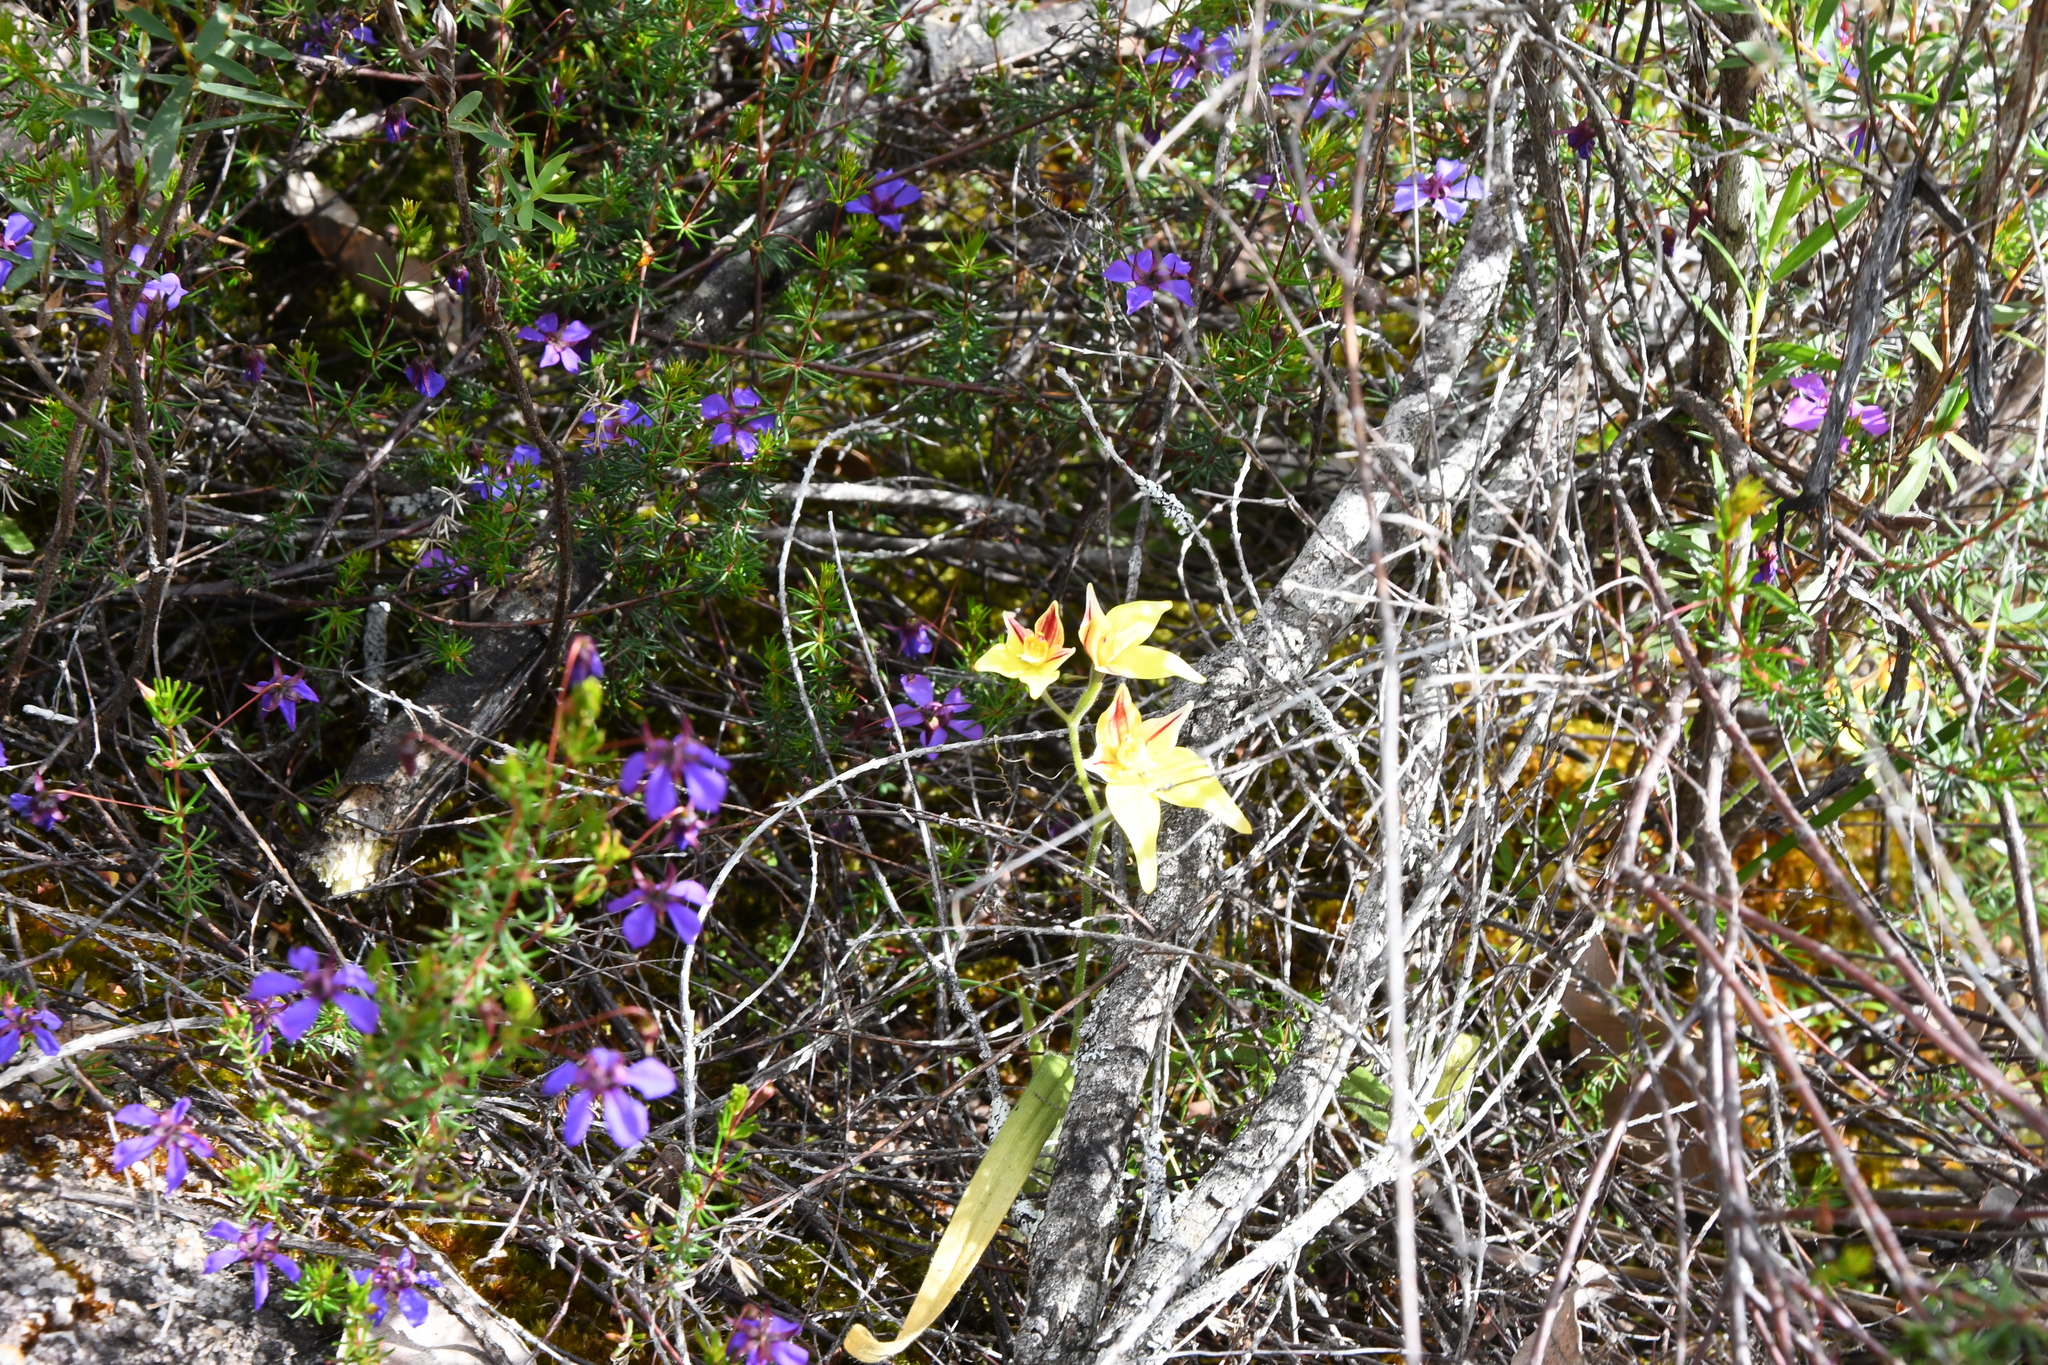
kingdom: Plantae
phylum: Tracheophyta
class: Liliopsida
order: Asparagales
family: Orchidaceae
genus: Caladenia
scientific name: Caladenia flava
